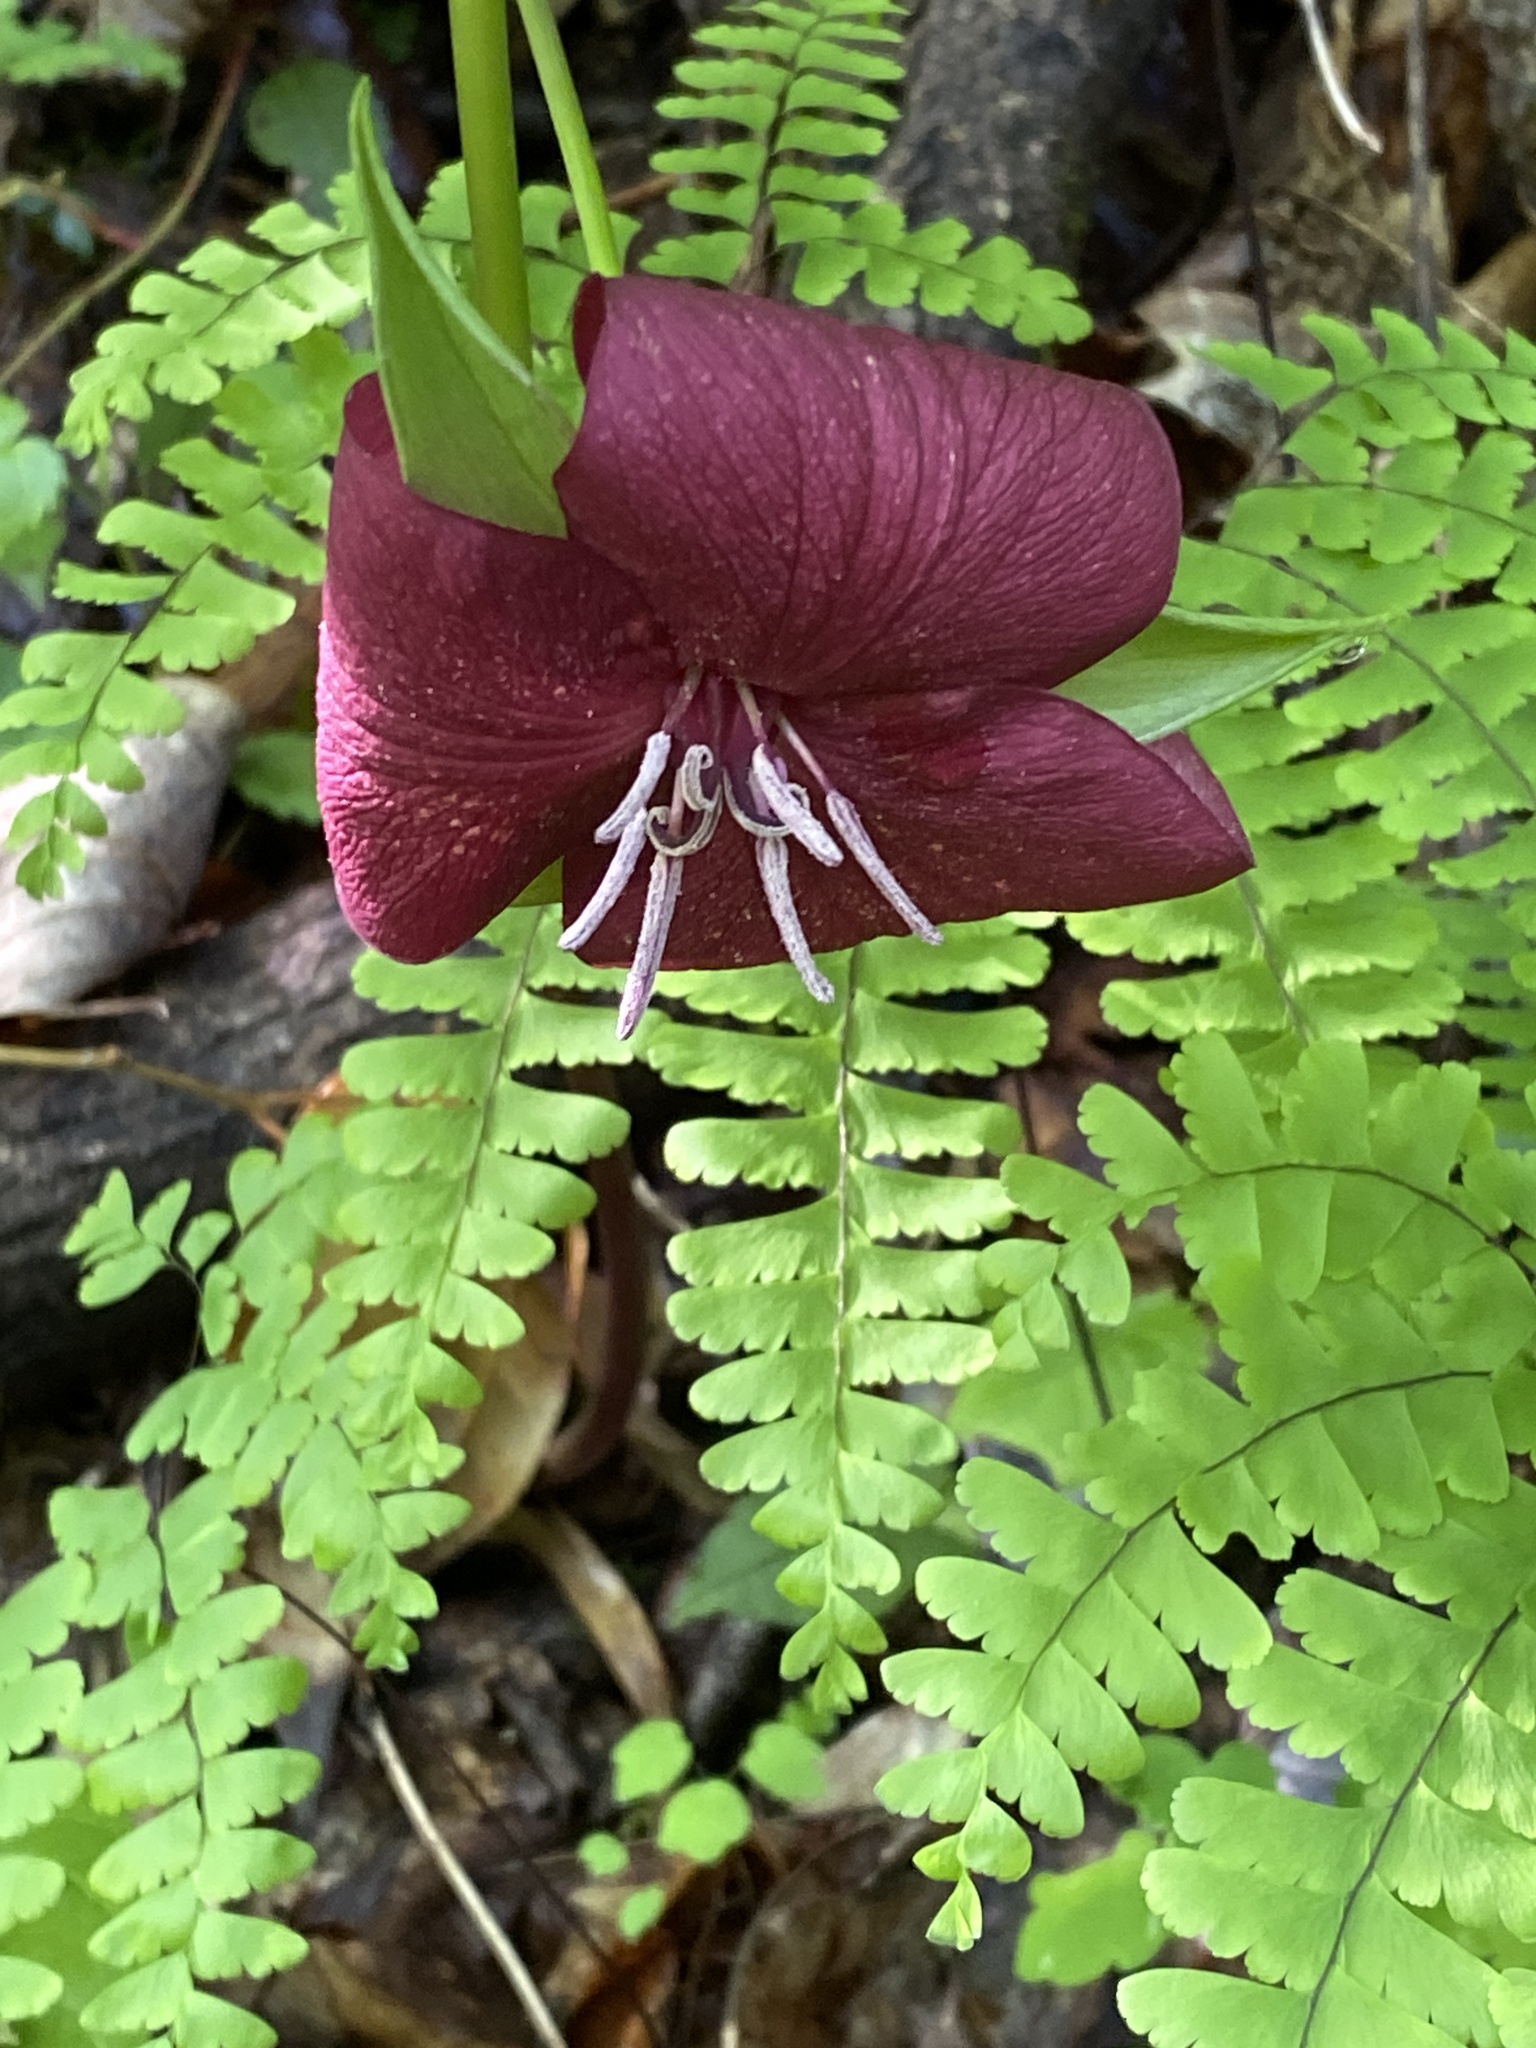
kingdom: Plantae
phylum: Tracheophyta
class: Liliopsida
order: Liliales
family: Melanthiaceae
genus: Trillium
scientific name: Trillium vaseyi
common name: Sweet trillium
